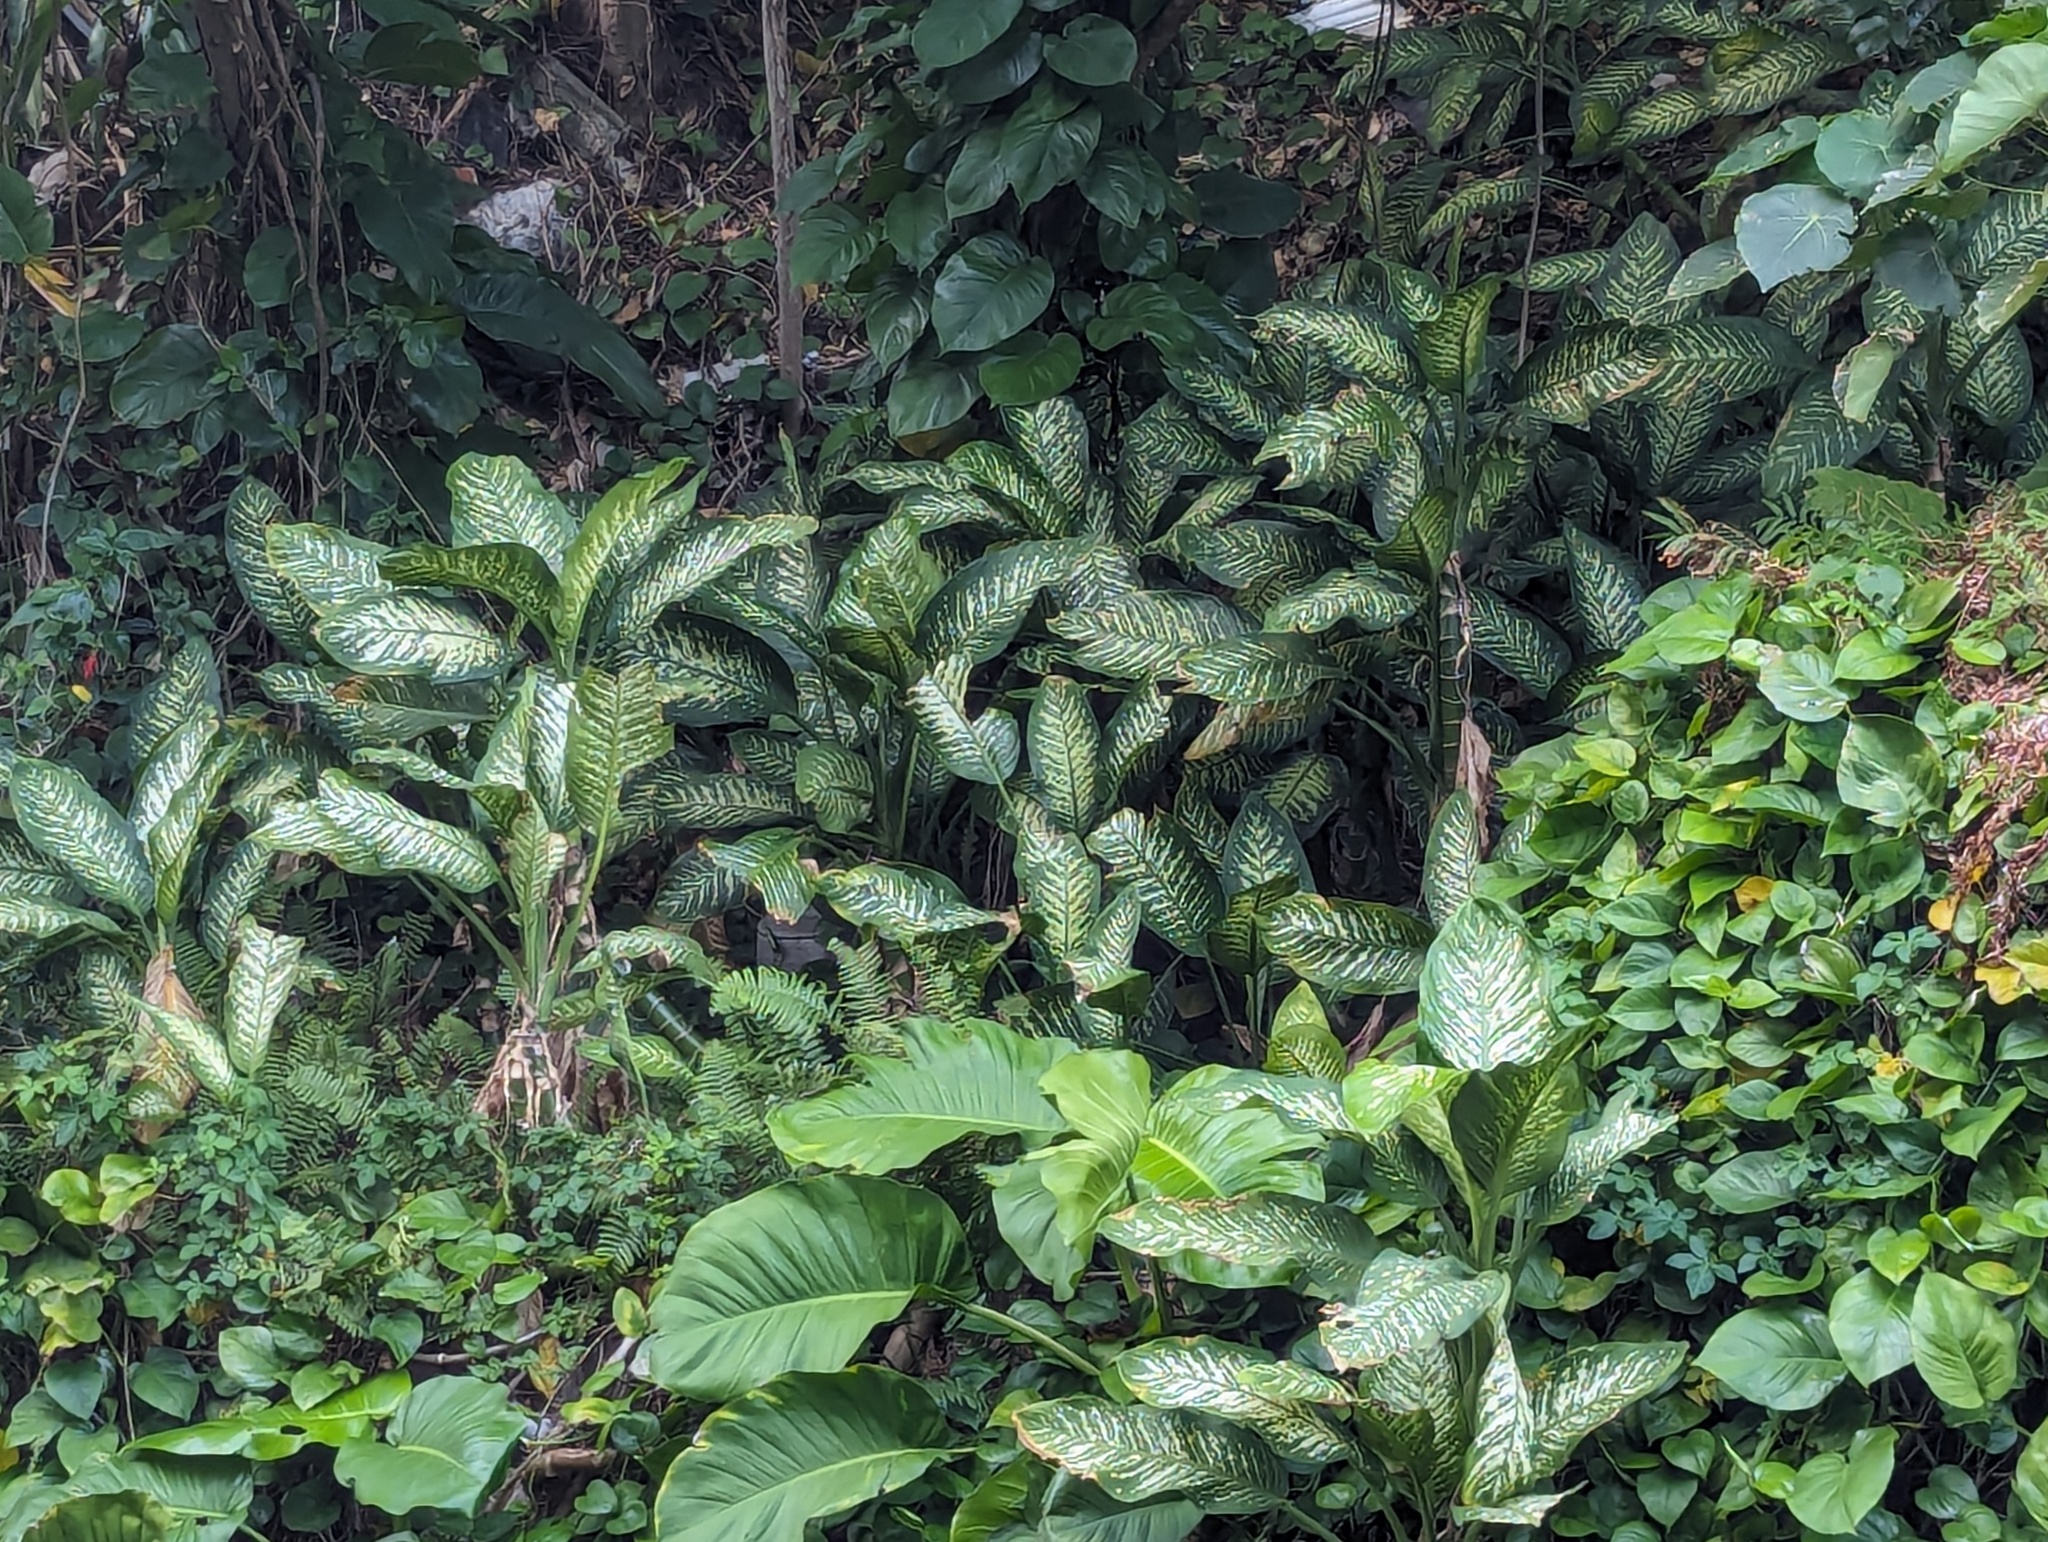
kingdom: Plantae
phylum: Tracheophyta
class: Liliopsida
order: Alismatales
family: Araceae
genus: Dieffenbachia
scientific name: Dieffenbachia seguine
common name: Dumbcane
